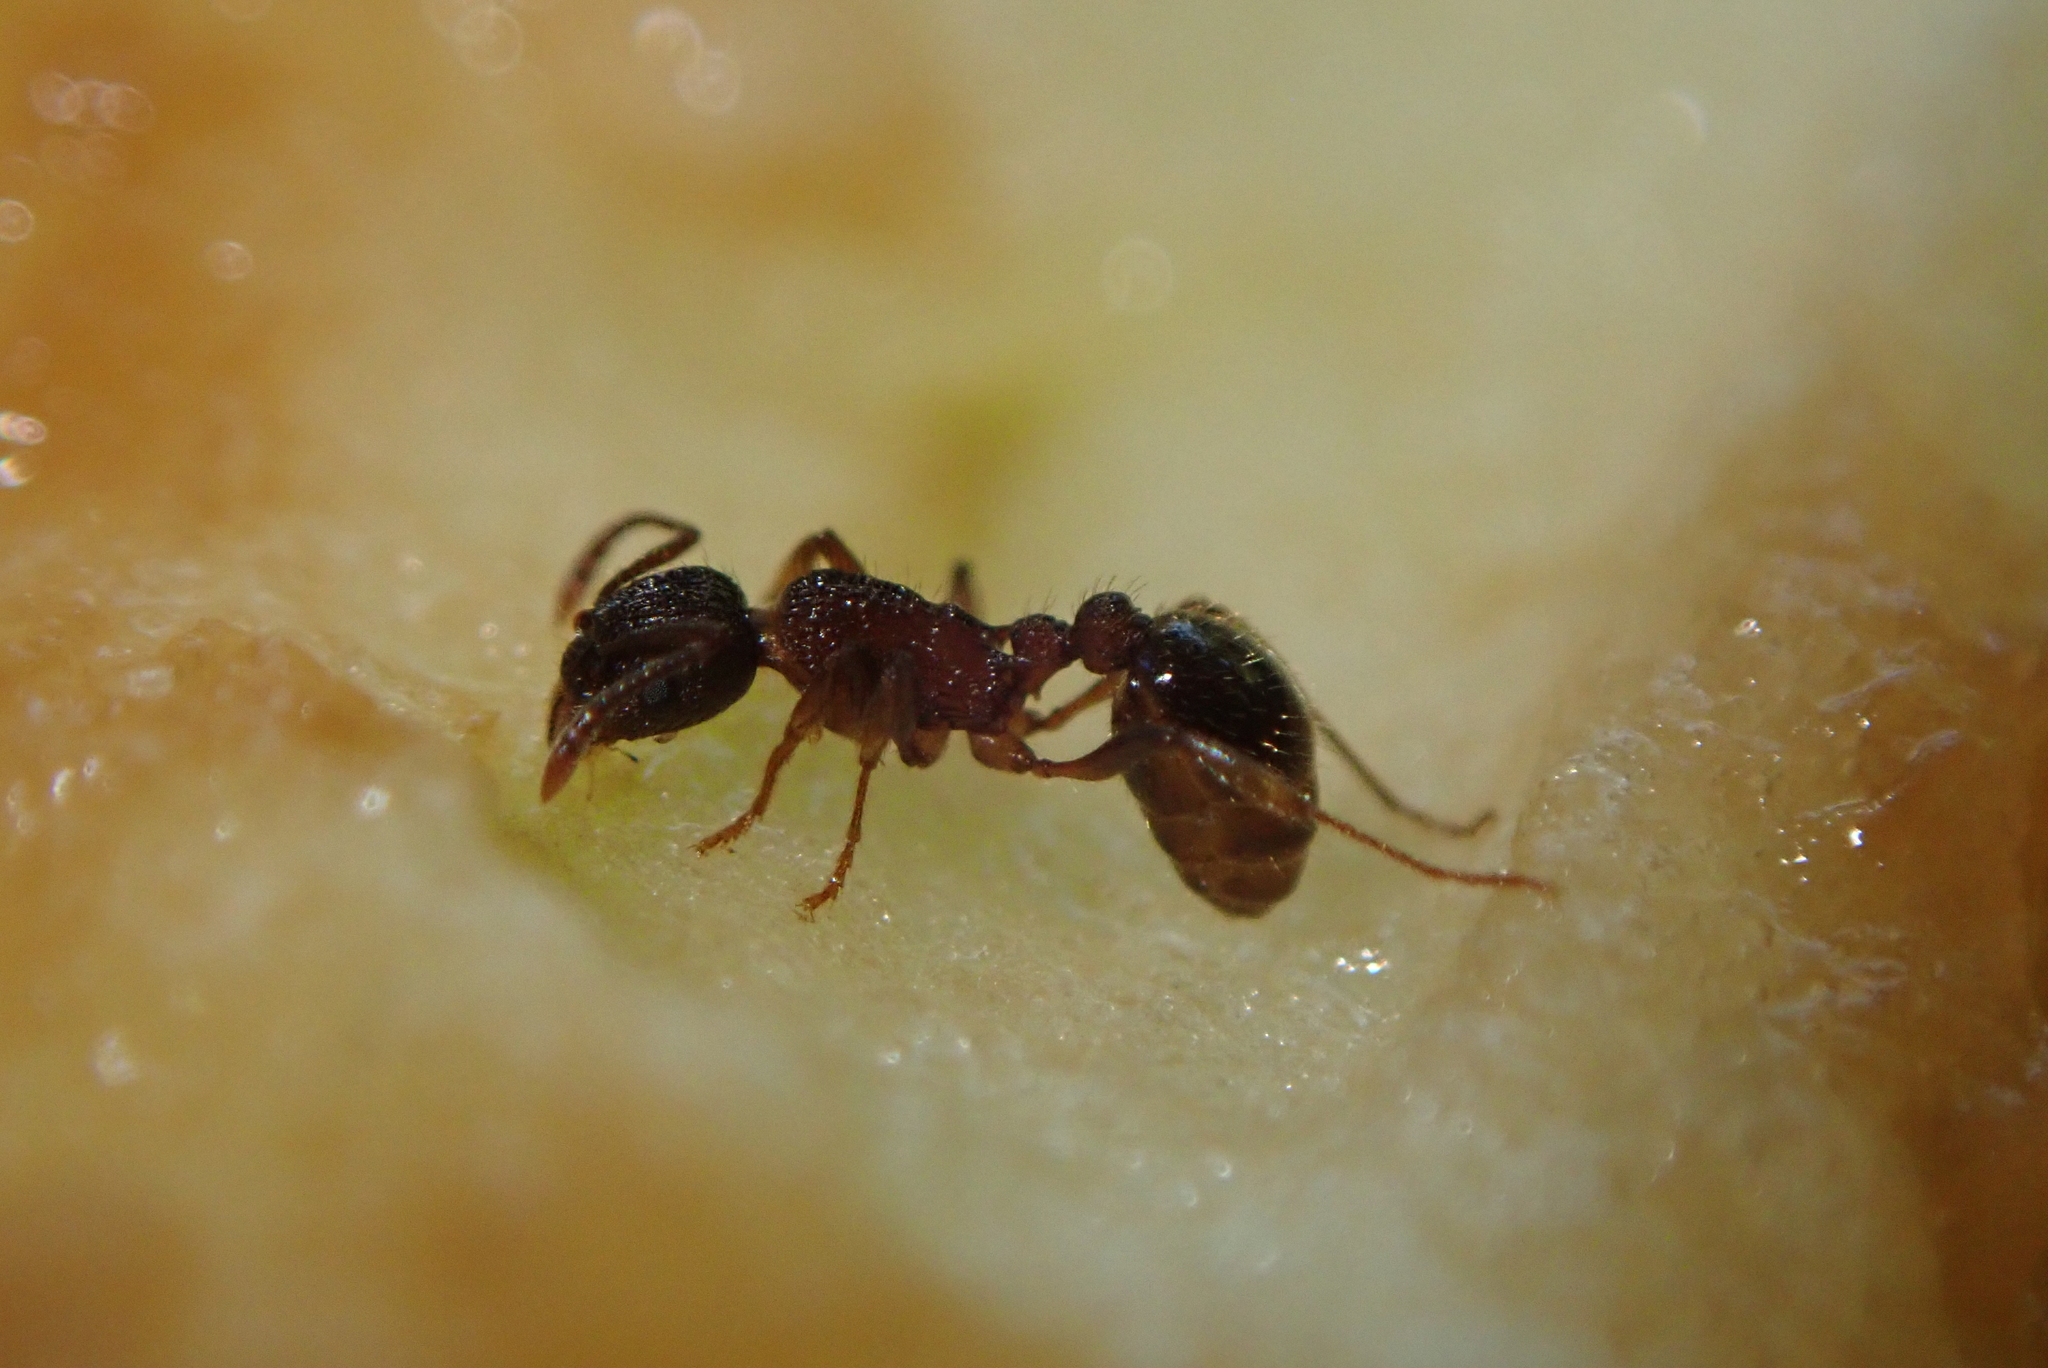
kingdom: Animalia
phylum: Arthropoda
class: Insecta
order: Hymenoptera
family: Formicidae
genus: Myrmica
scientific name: Myrmica latifrons
